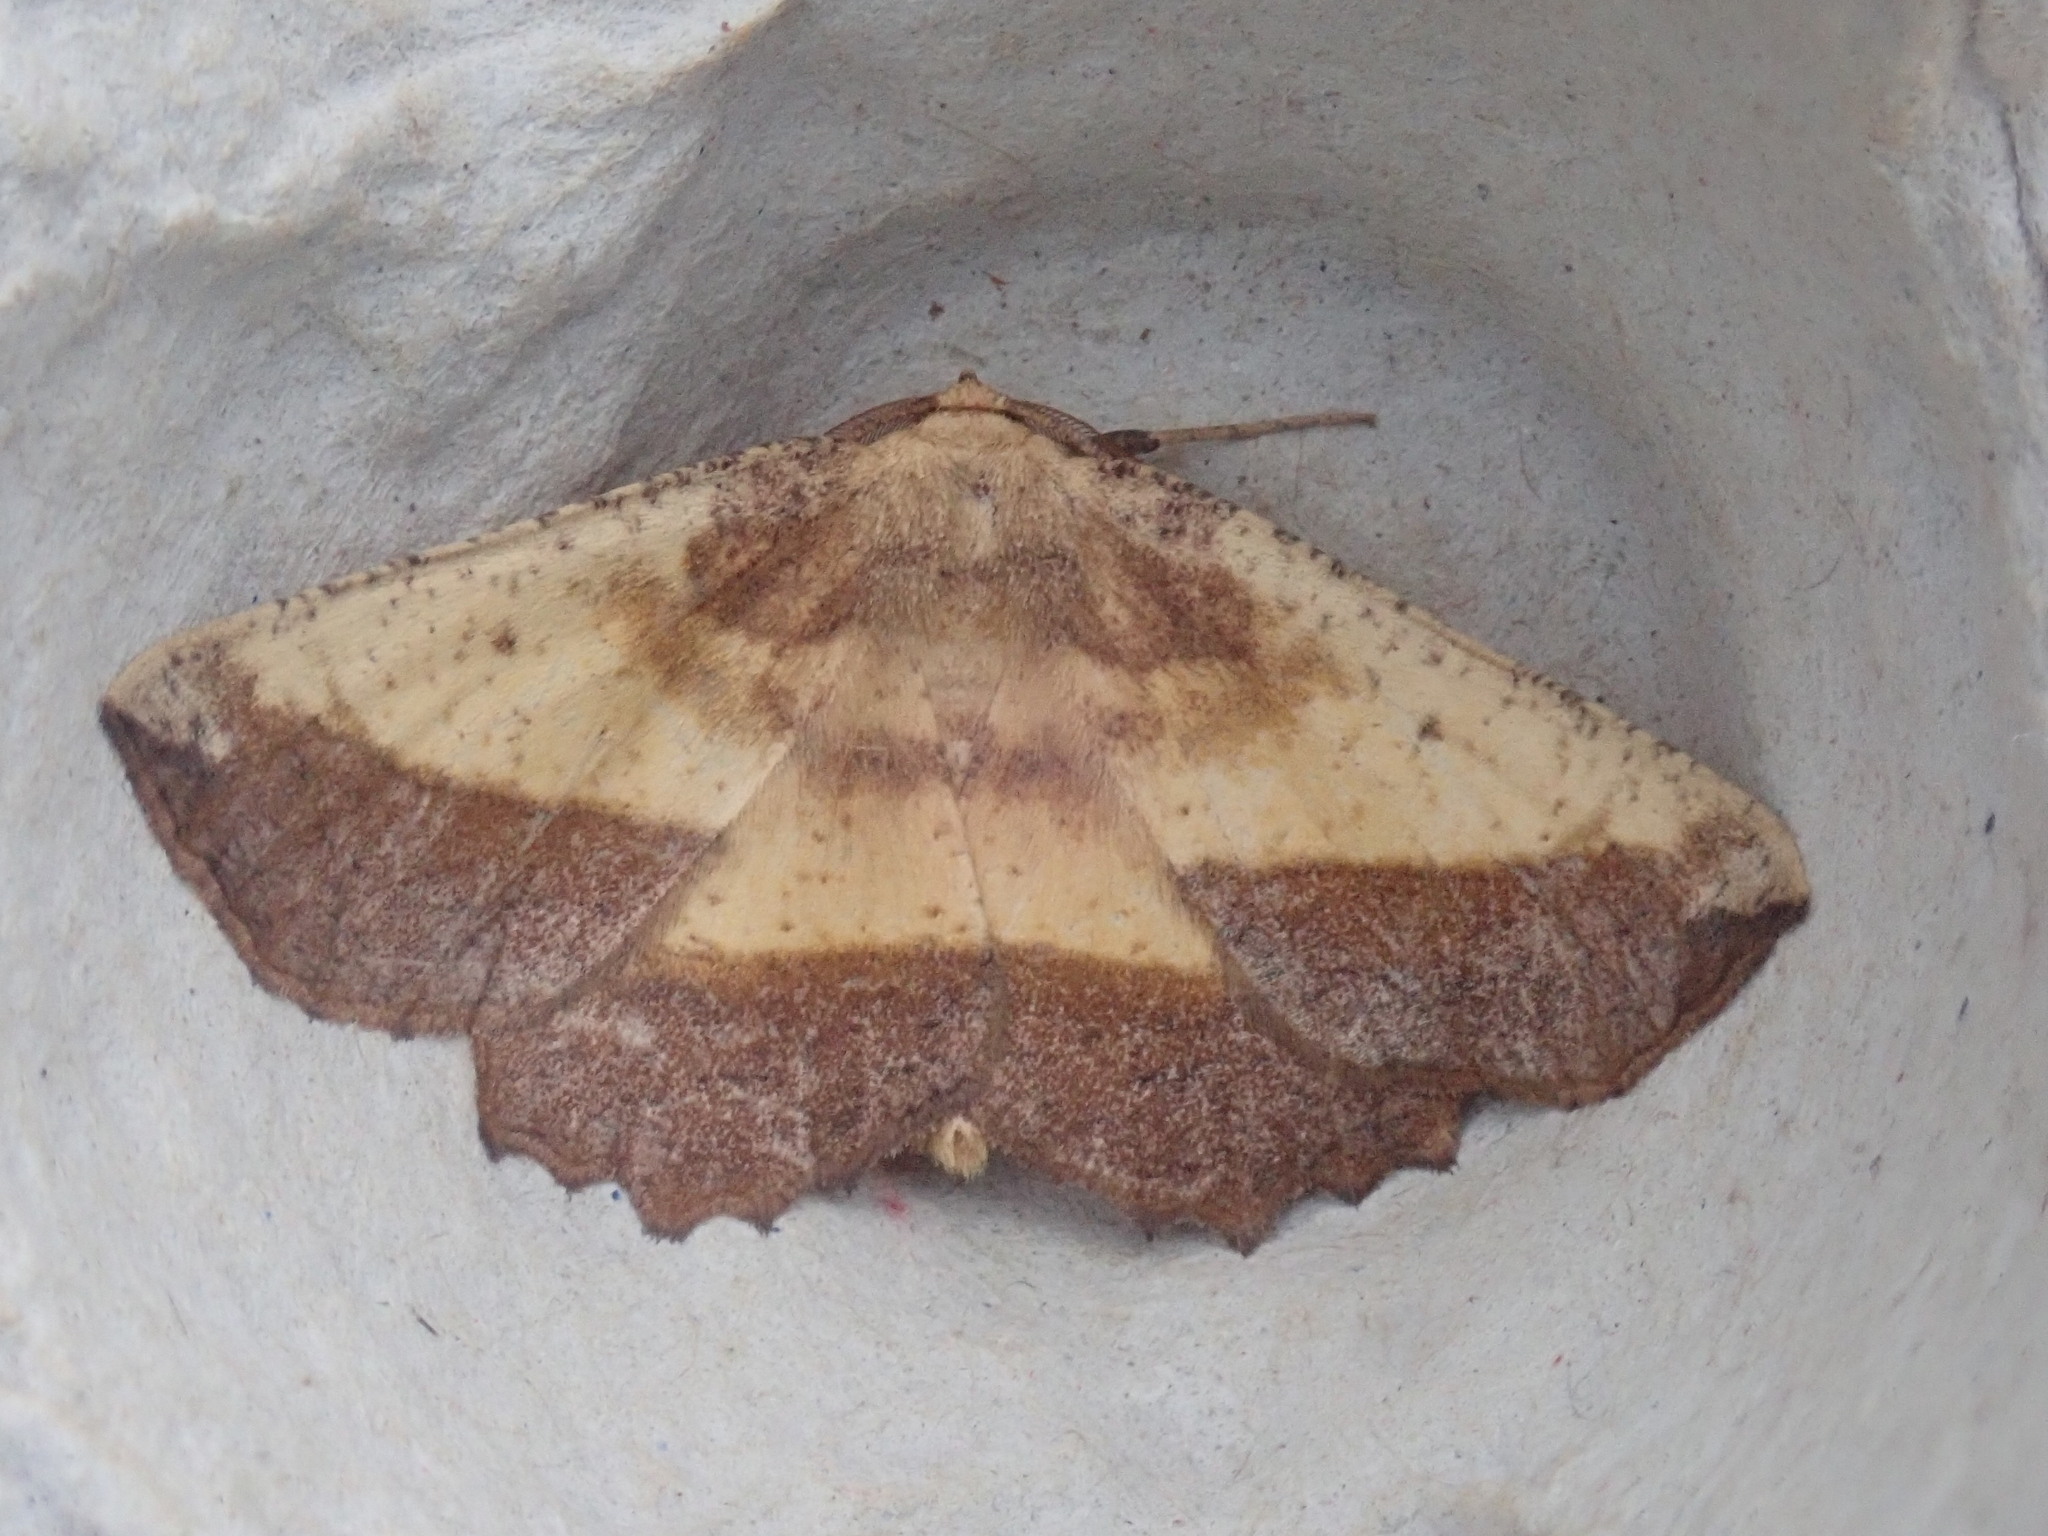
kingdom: Animalia
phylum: Arthropoda
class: Insecta
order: Lepidoptera
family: Geometridae
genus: Euchlaena
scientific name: Euchlaena serrata
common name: Saw wing
